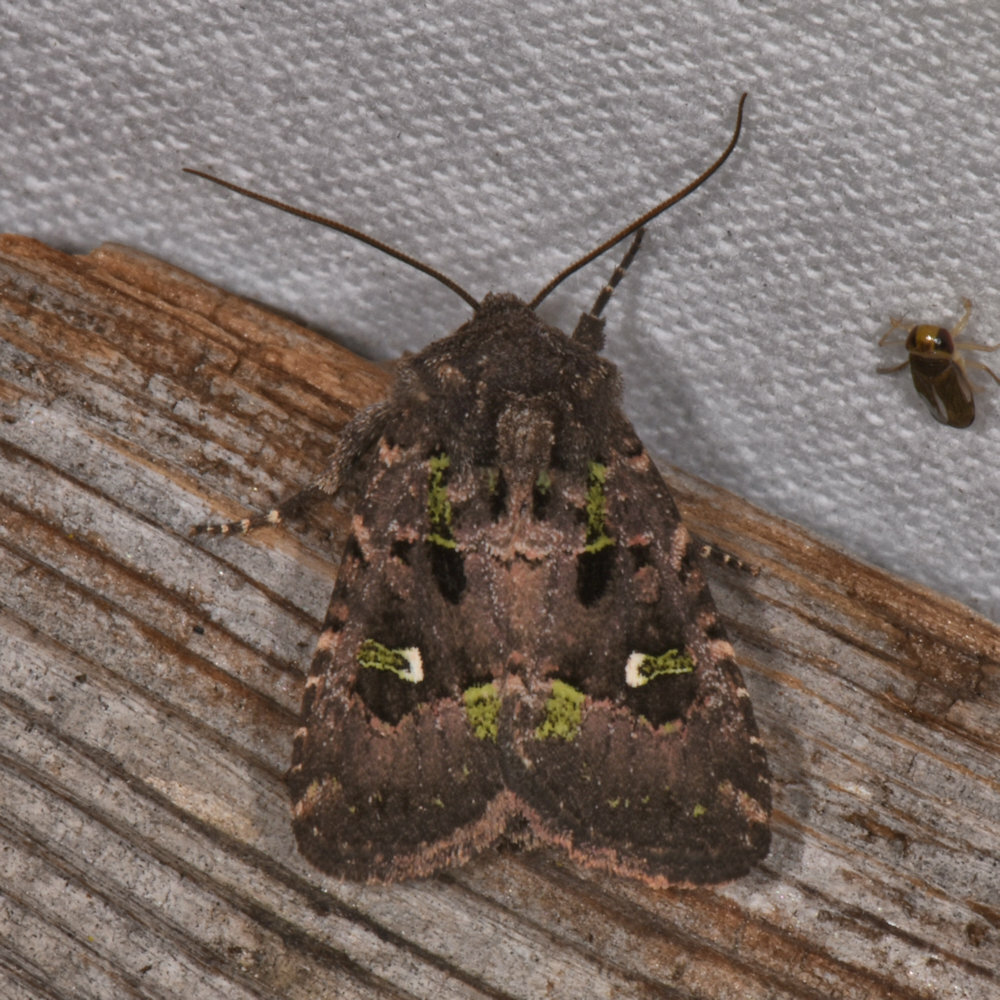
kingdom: Animalia
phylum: Arthropoda
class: Insecta
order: Lepidoptera
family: Noctuidae
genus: Lacinipolia
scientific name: Lacinipolia renigera
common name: Kidney-spotted minor
